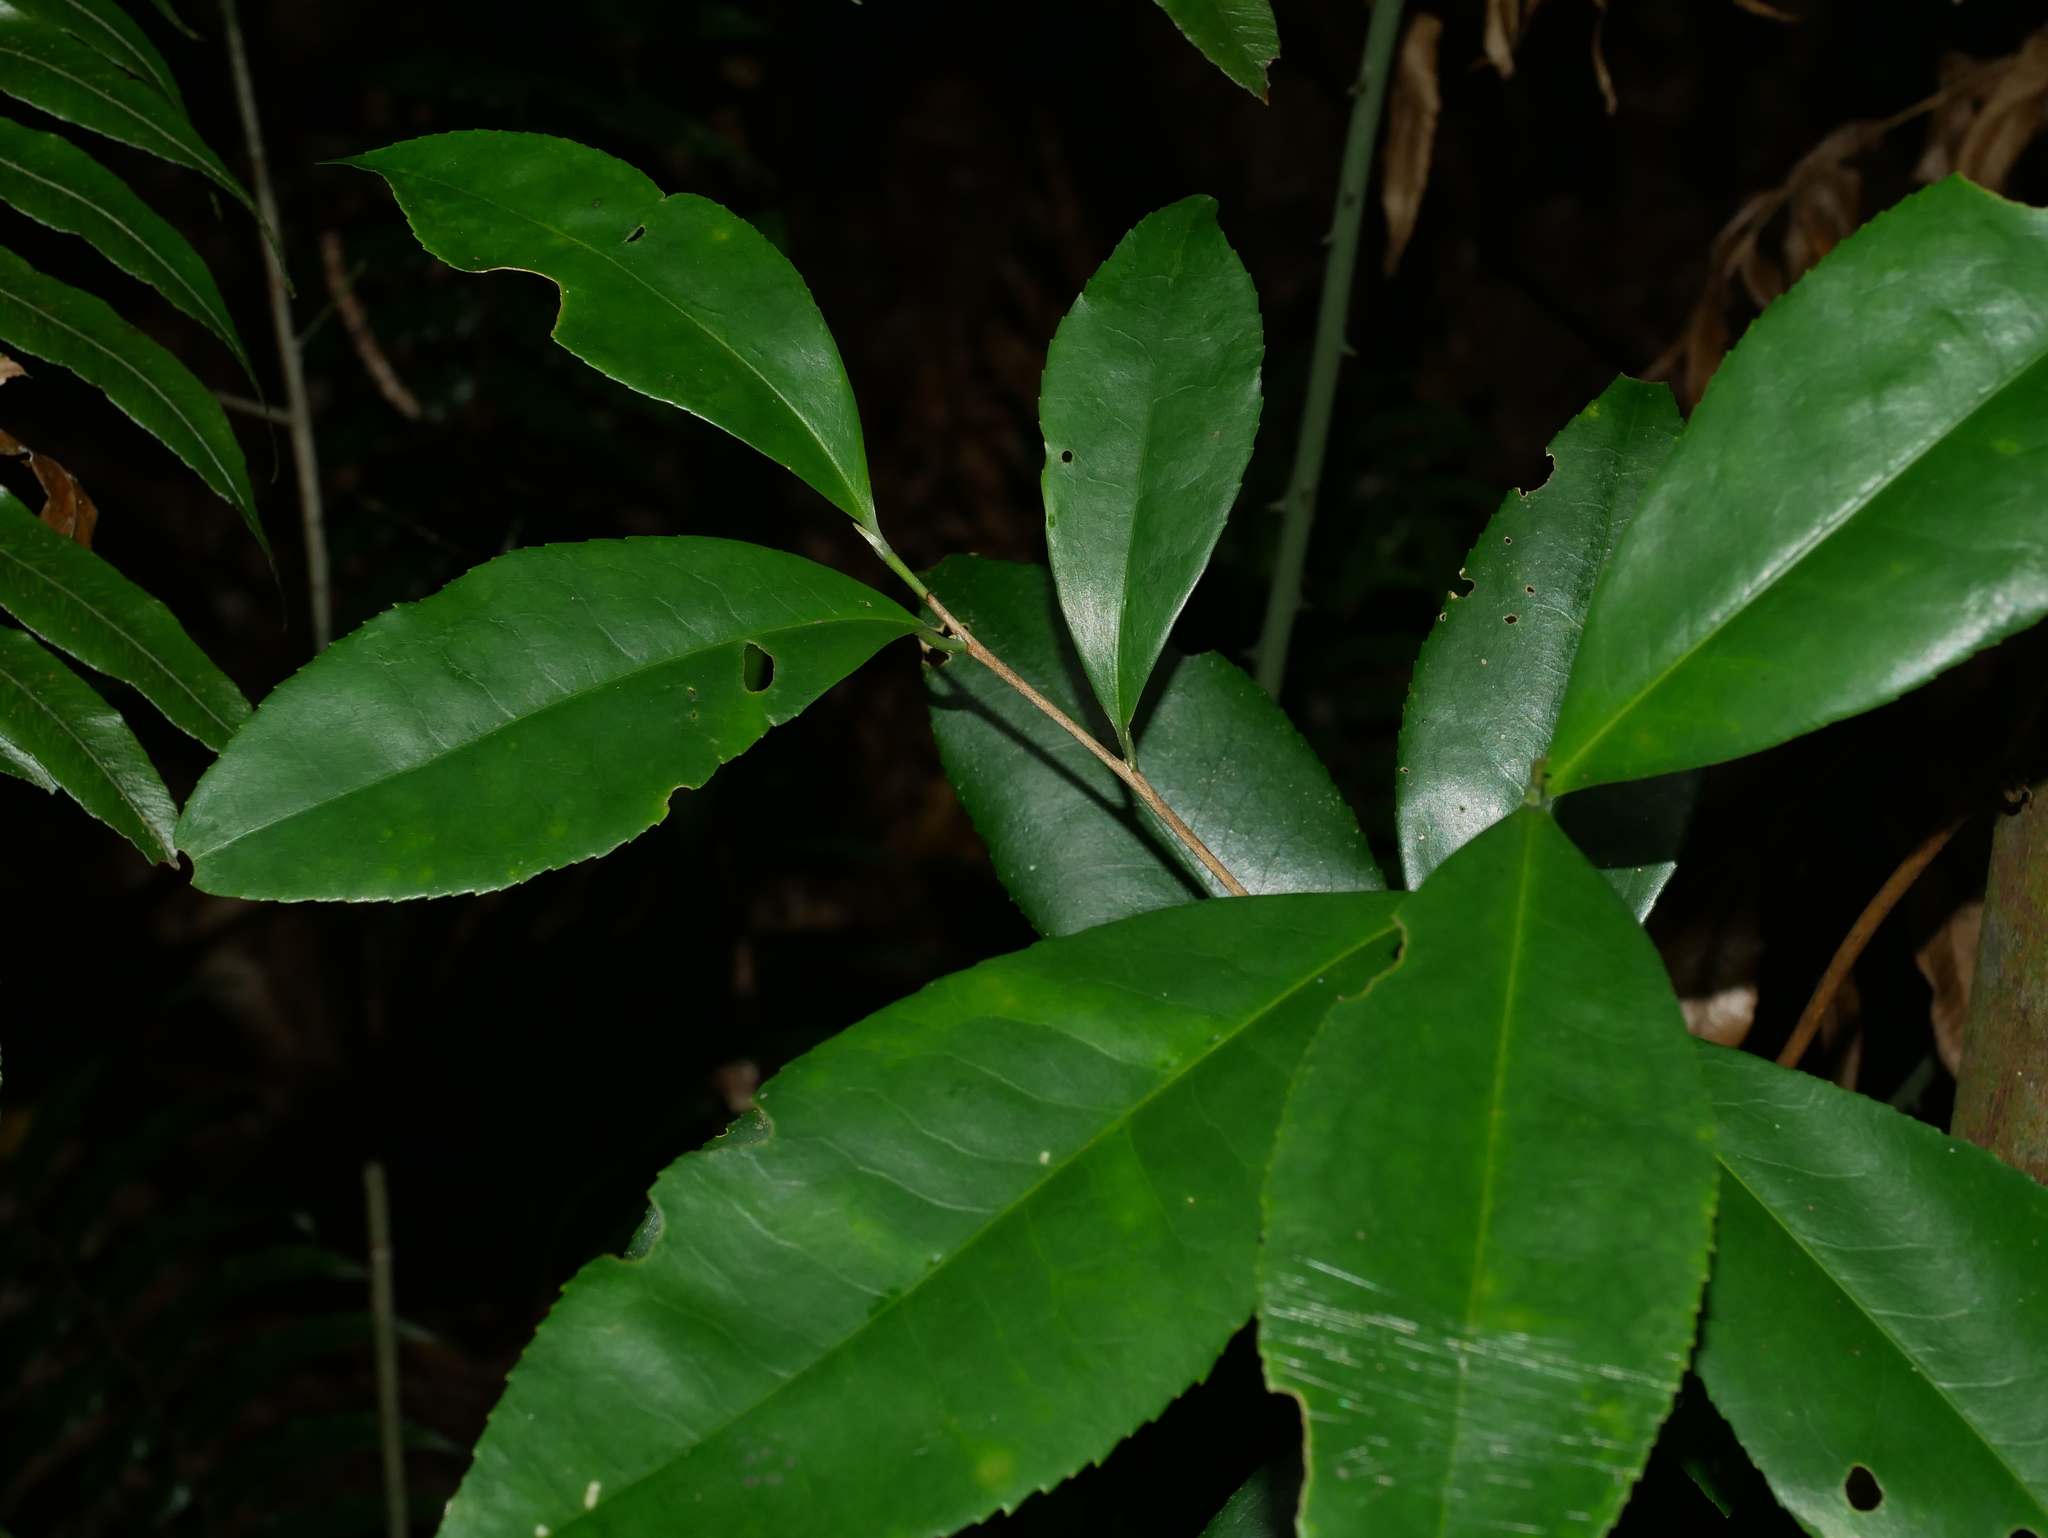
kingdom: Plantae
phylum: Tracheophyta
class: Magnoliopsida
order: Ericales
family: Theaceae
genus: Pyrenaria
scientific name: Pyrenaria microcarpa
